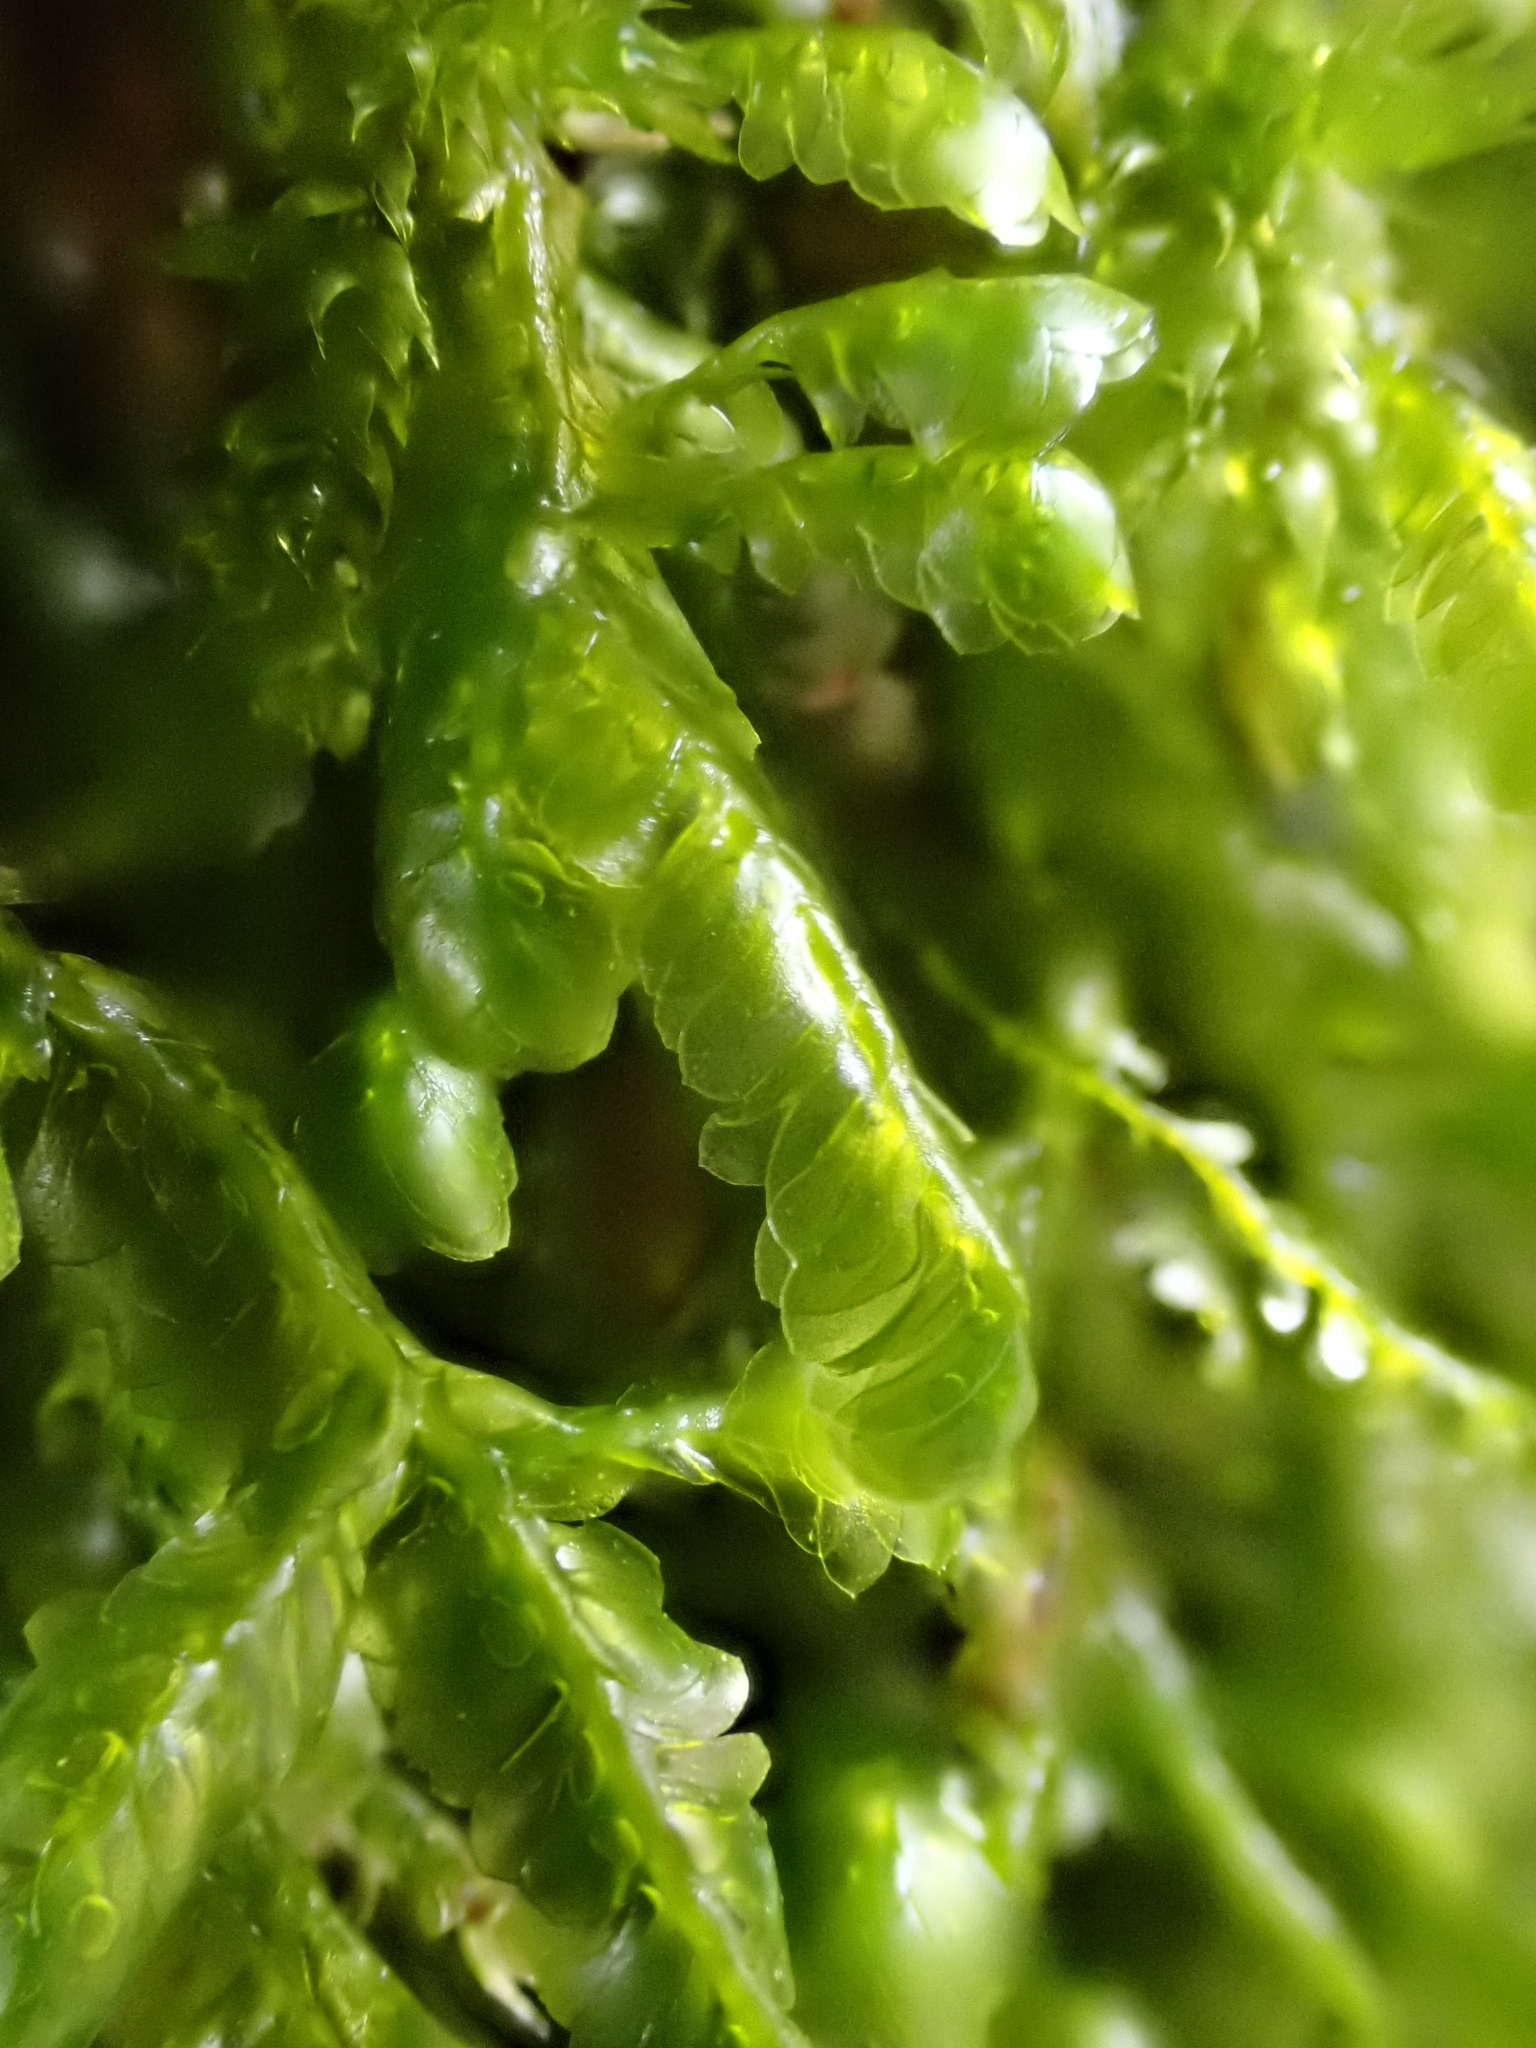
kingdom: Plantae
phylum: Bryophyta
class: Bryopsida
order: Hypnales
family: Neckeraceae
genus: Homalia
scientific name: Homalia trichomanoides
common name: Lime homalia moss
